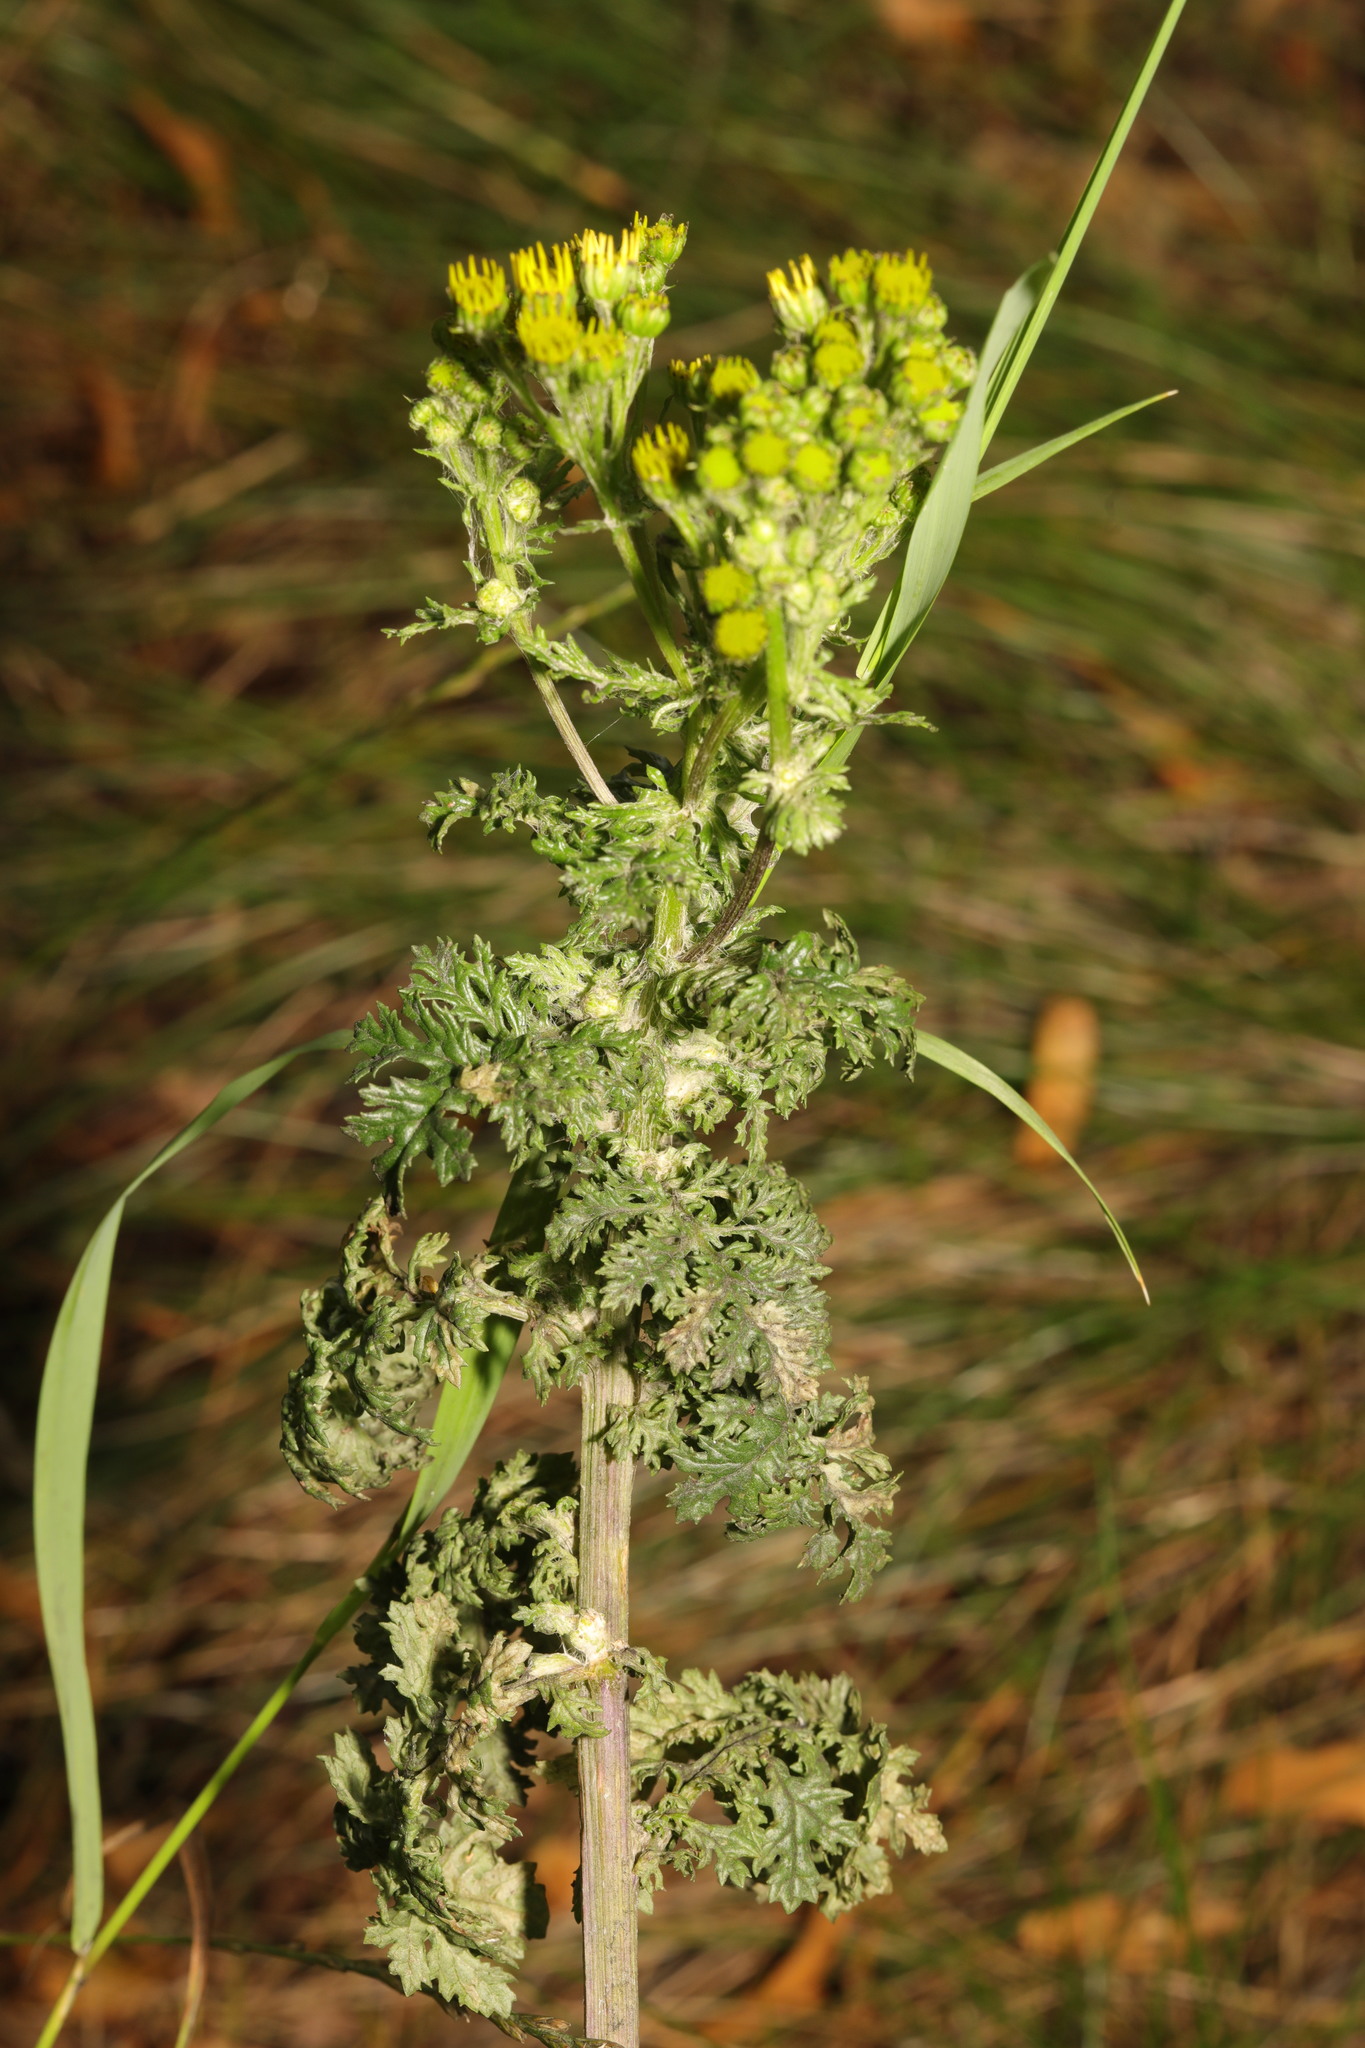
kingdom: Plantae
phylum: Tracheophyta
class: Magnoliopsida
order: Asterales
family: Asteraceae
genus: Jacobaea
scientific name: Jacobaea vulgaris
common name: Stinking willie
